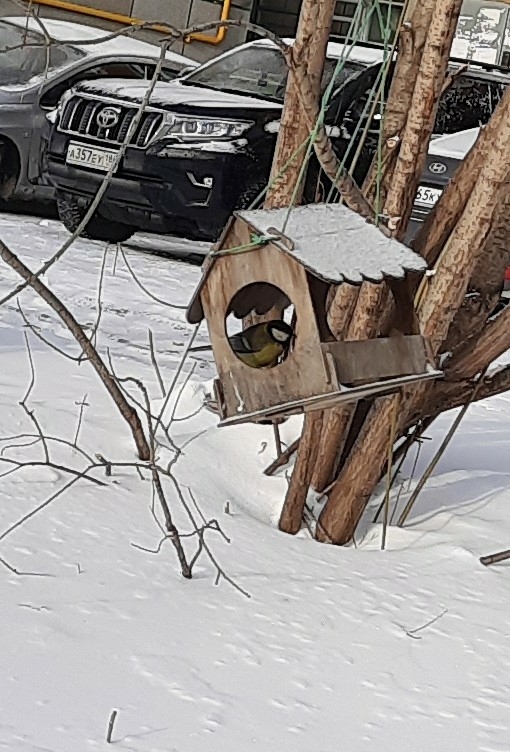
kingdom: Animalia
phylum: Chordata
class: Aves
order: Passeriformes
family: Paridae
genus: Parus
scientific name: Parus major
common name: Great tit
